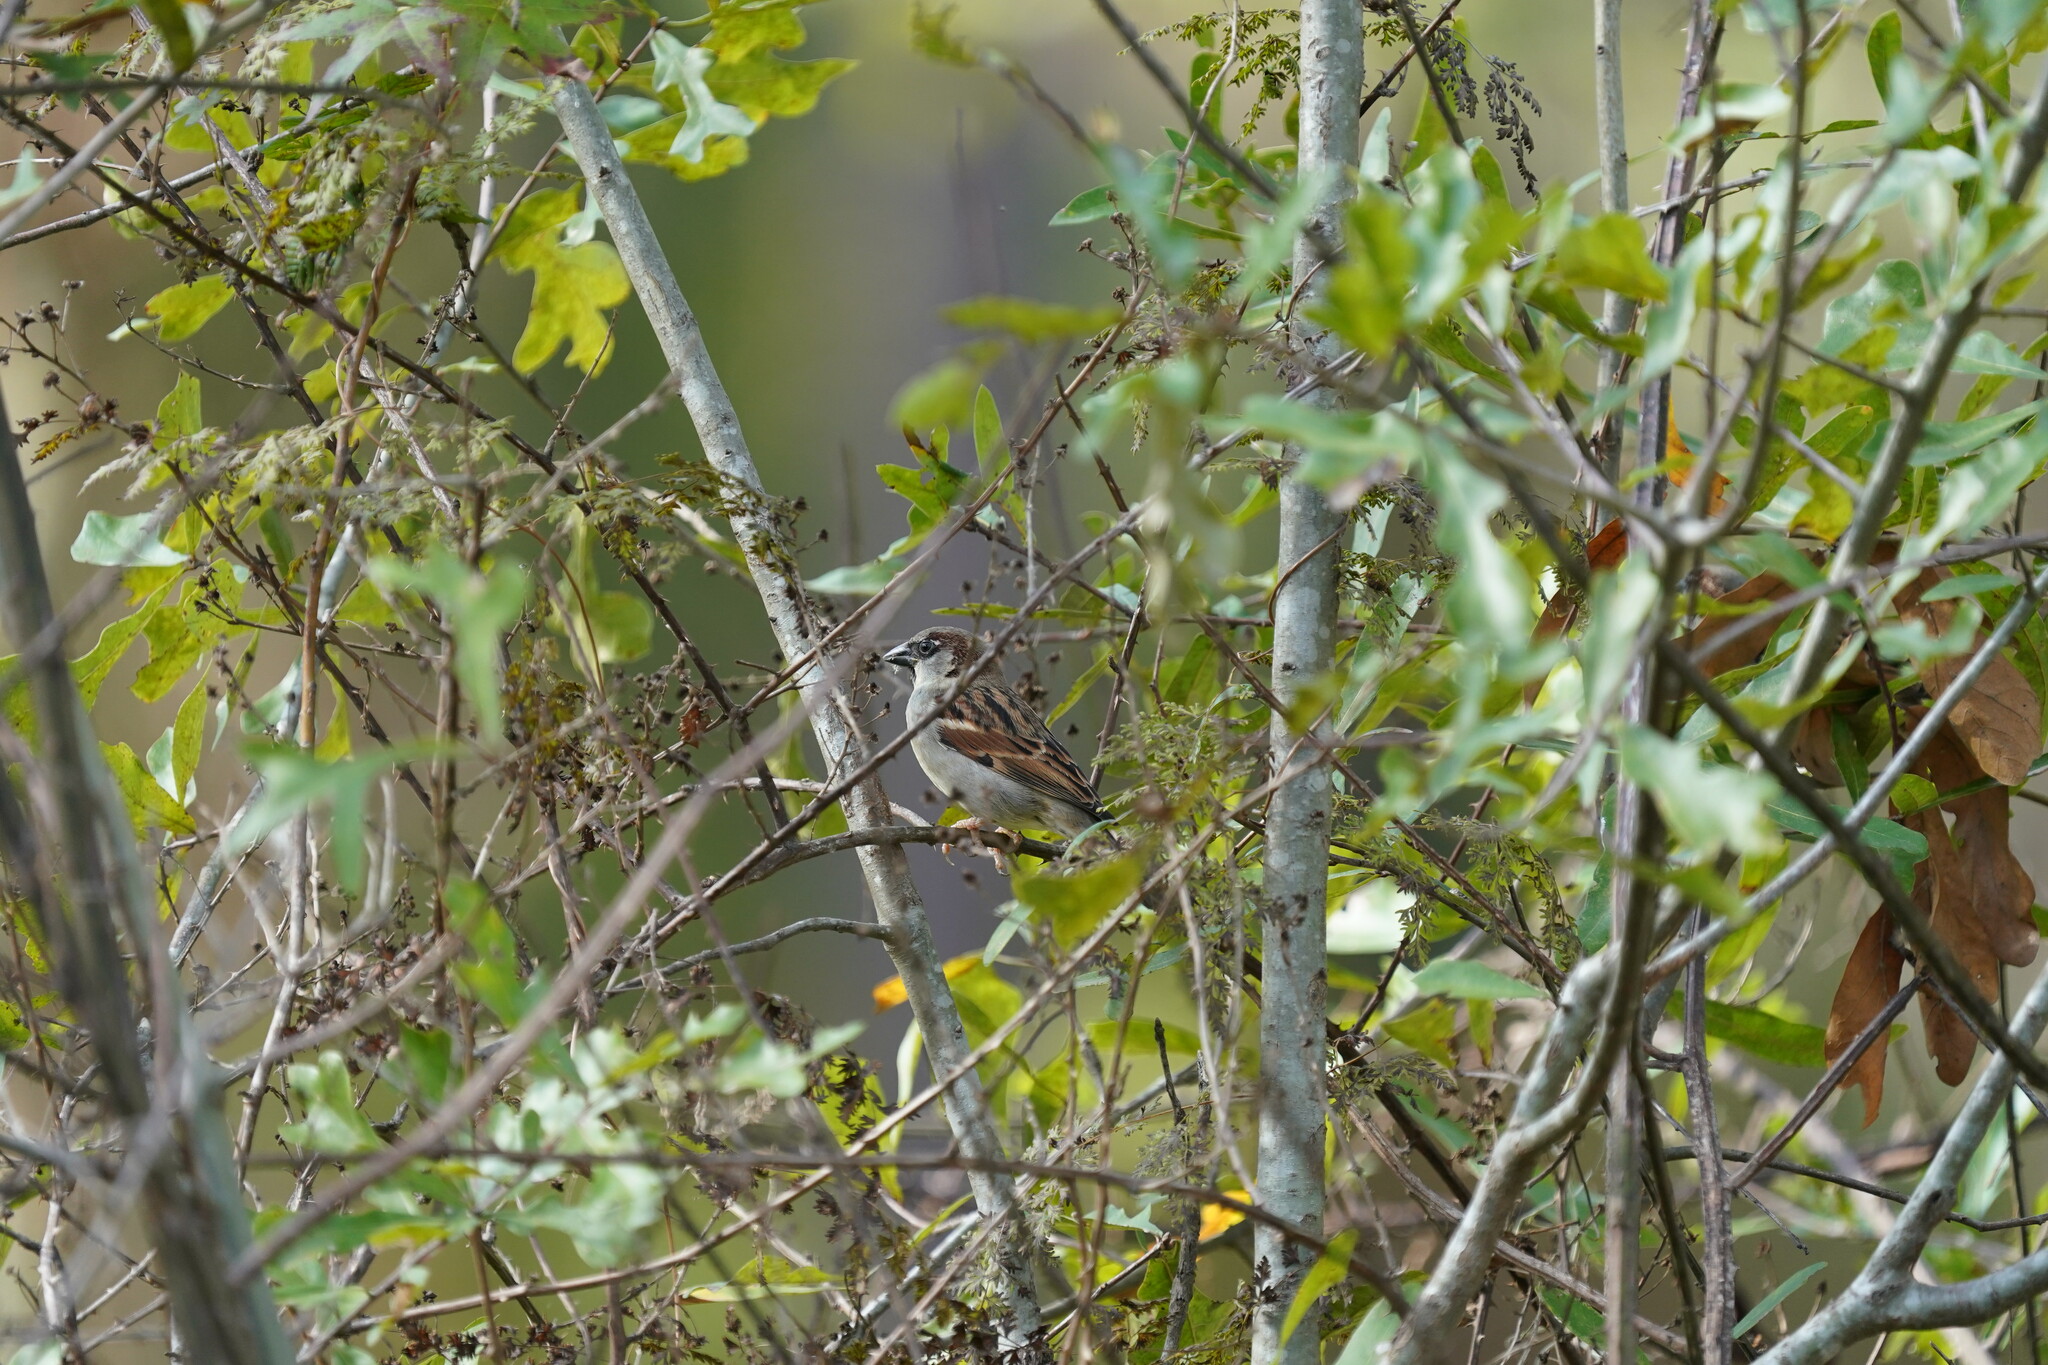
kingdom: Animalia
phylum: Chordata
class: Aves
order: Passeriformes
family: Passeridae
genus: Passer
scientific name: Passer domesticus
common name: House sparrow
